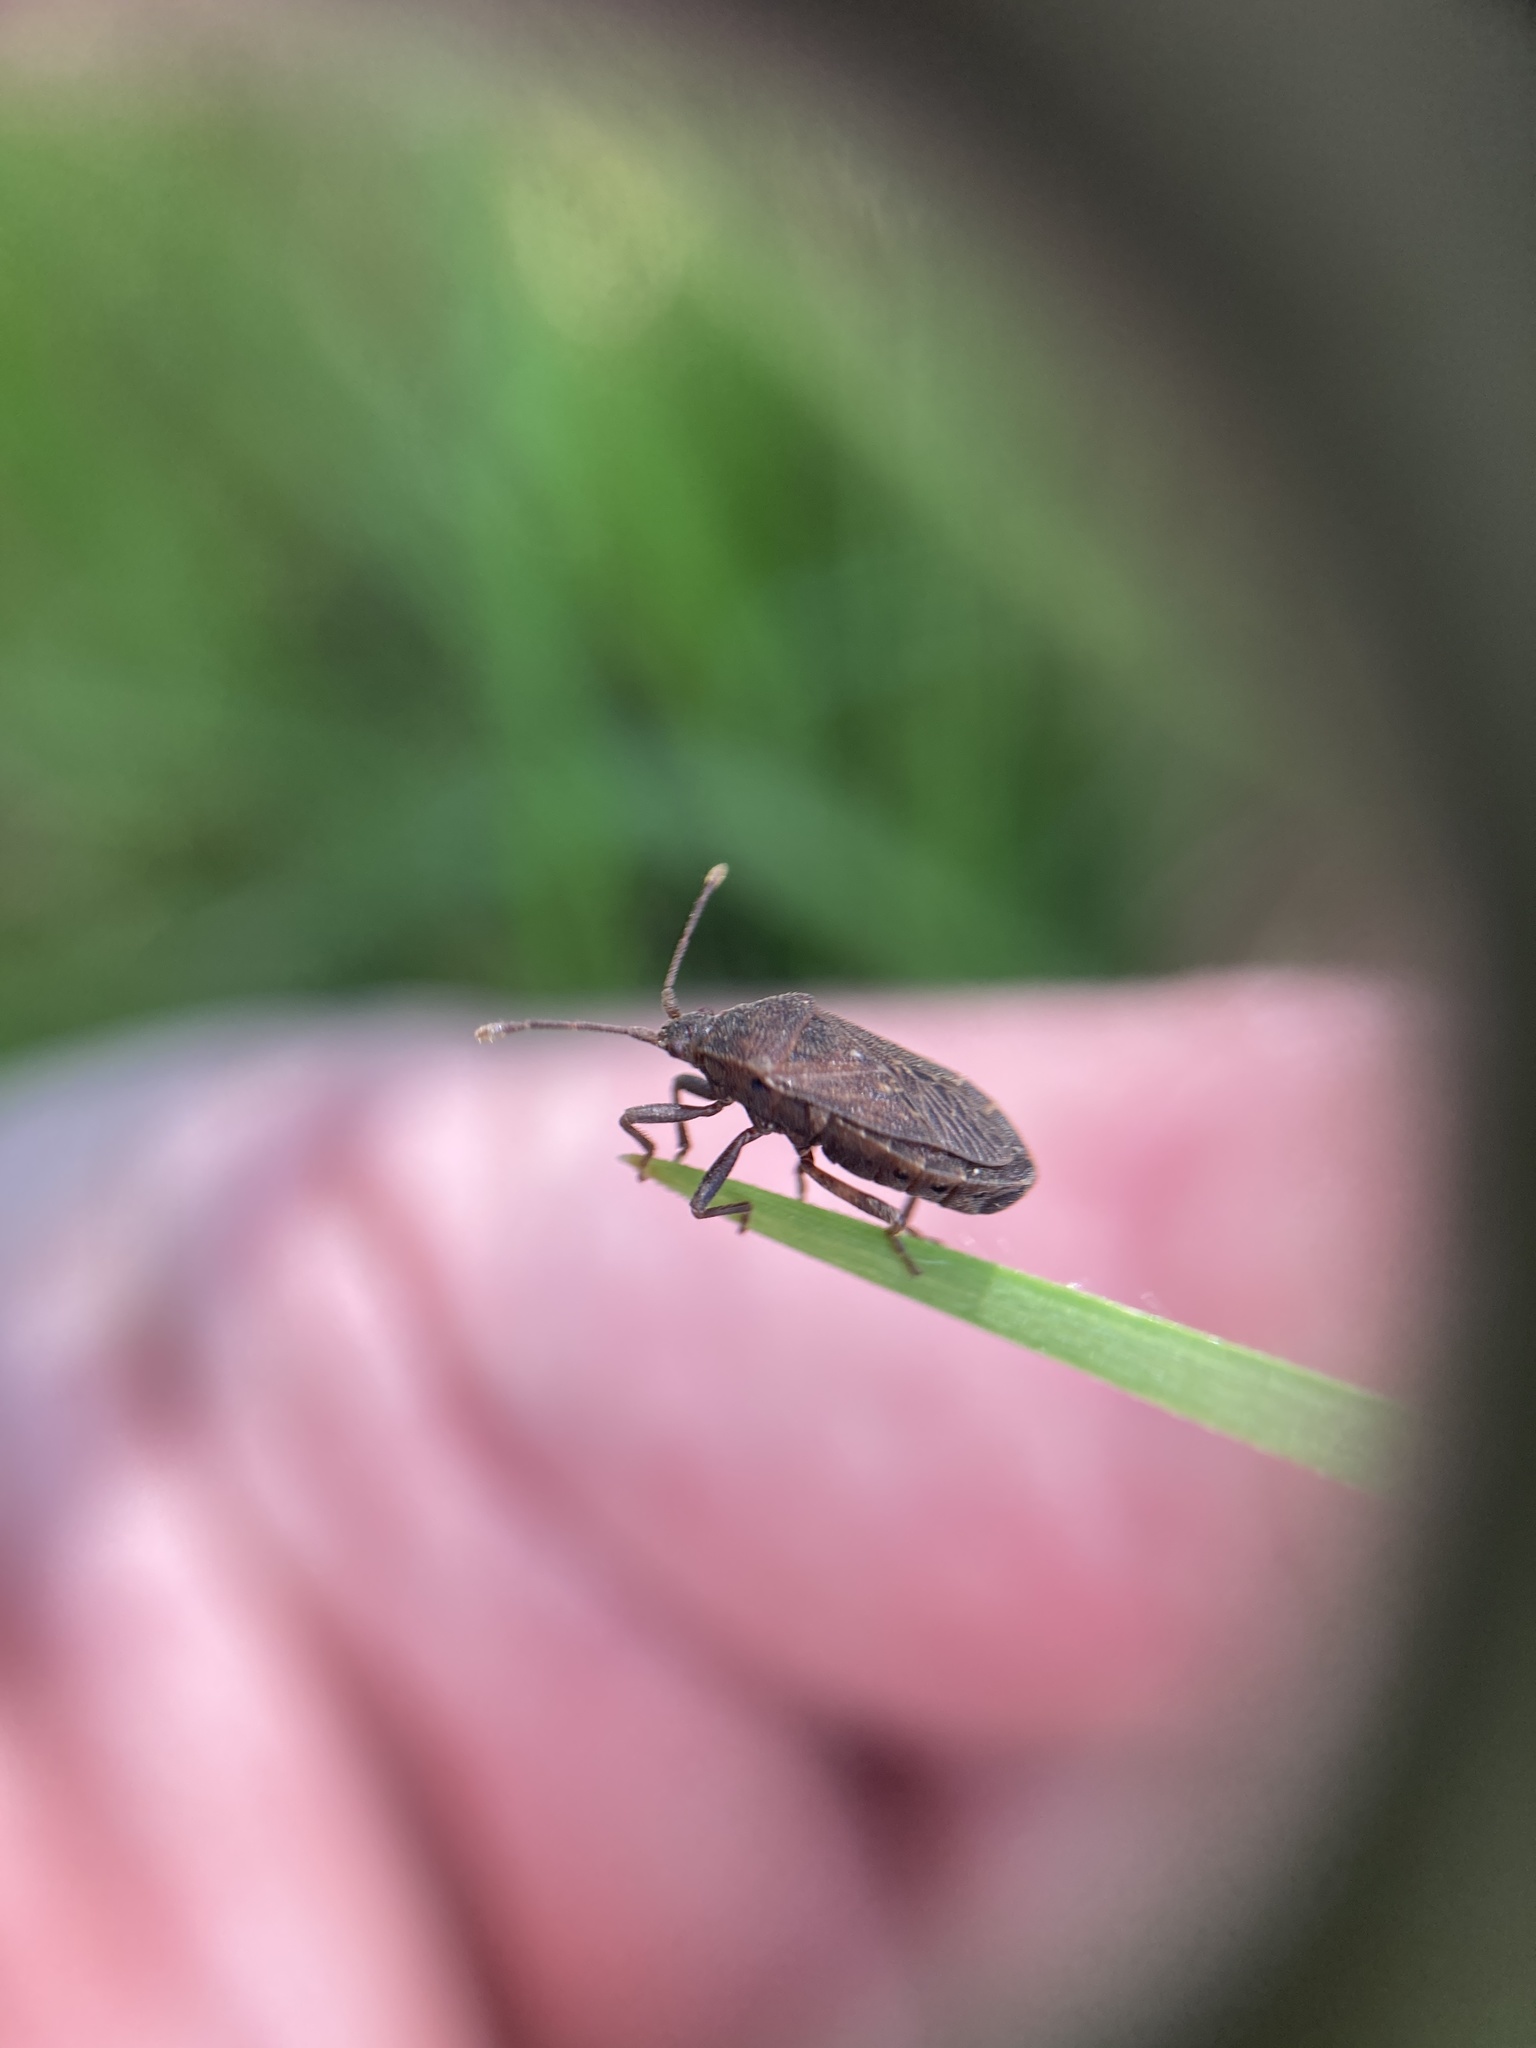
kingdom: Animalia
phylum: Arthropoda
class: Insecta
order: Hemiptera
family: Coreidae
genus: Acantholybas
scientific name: Acantholybas brunneus
